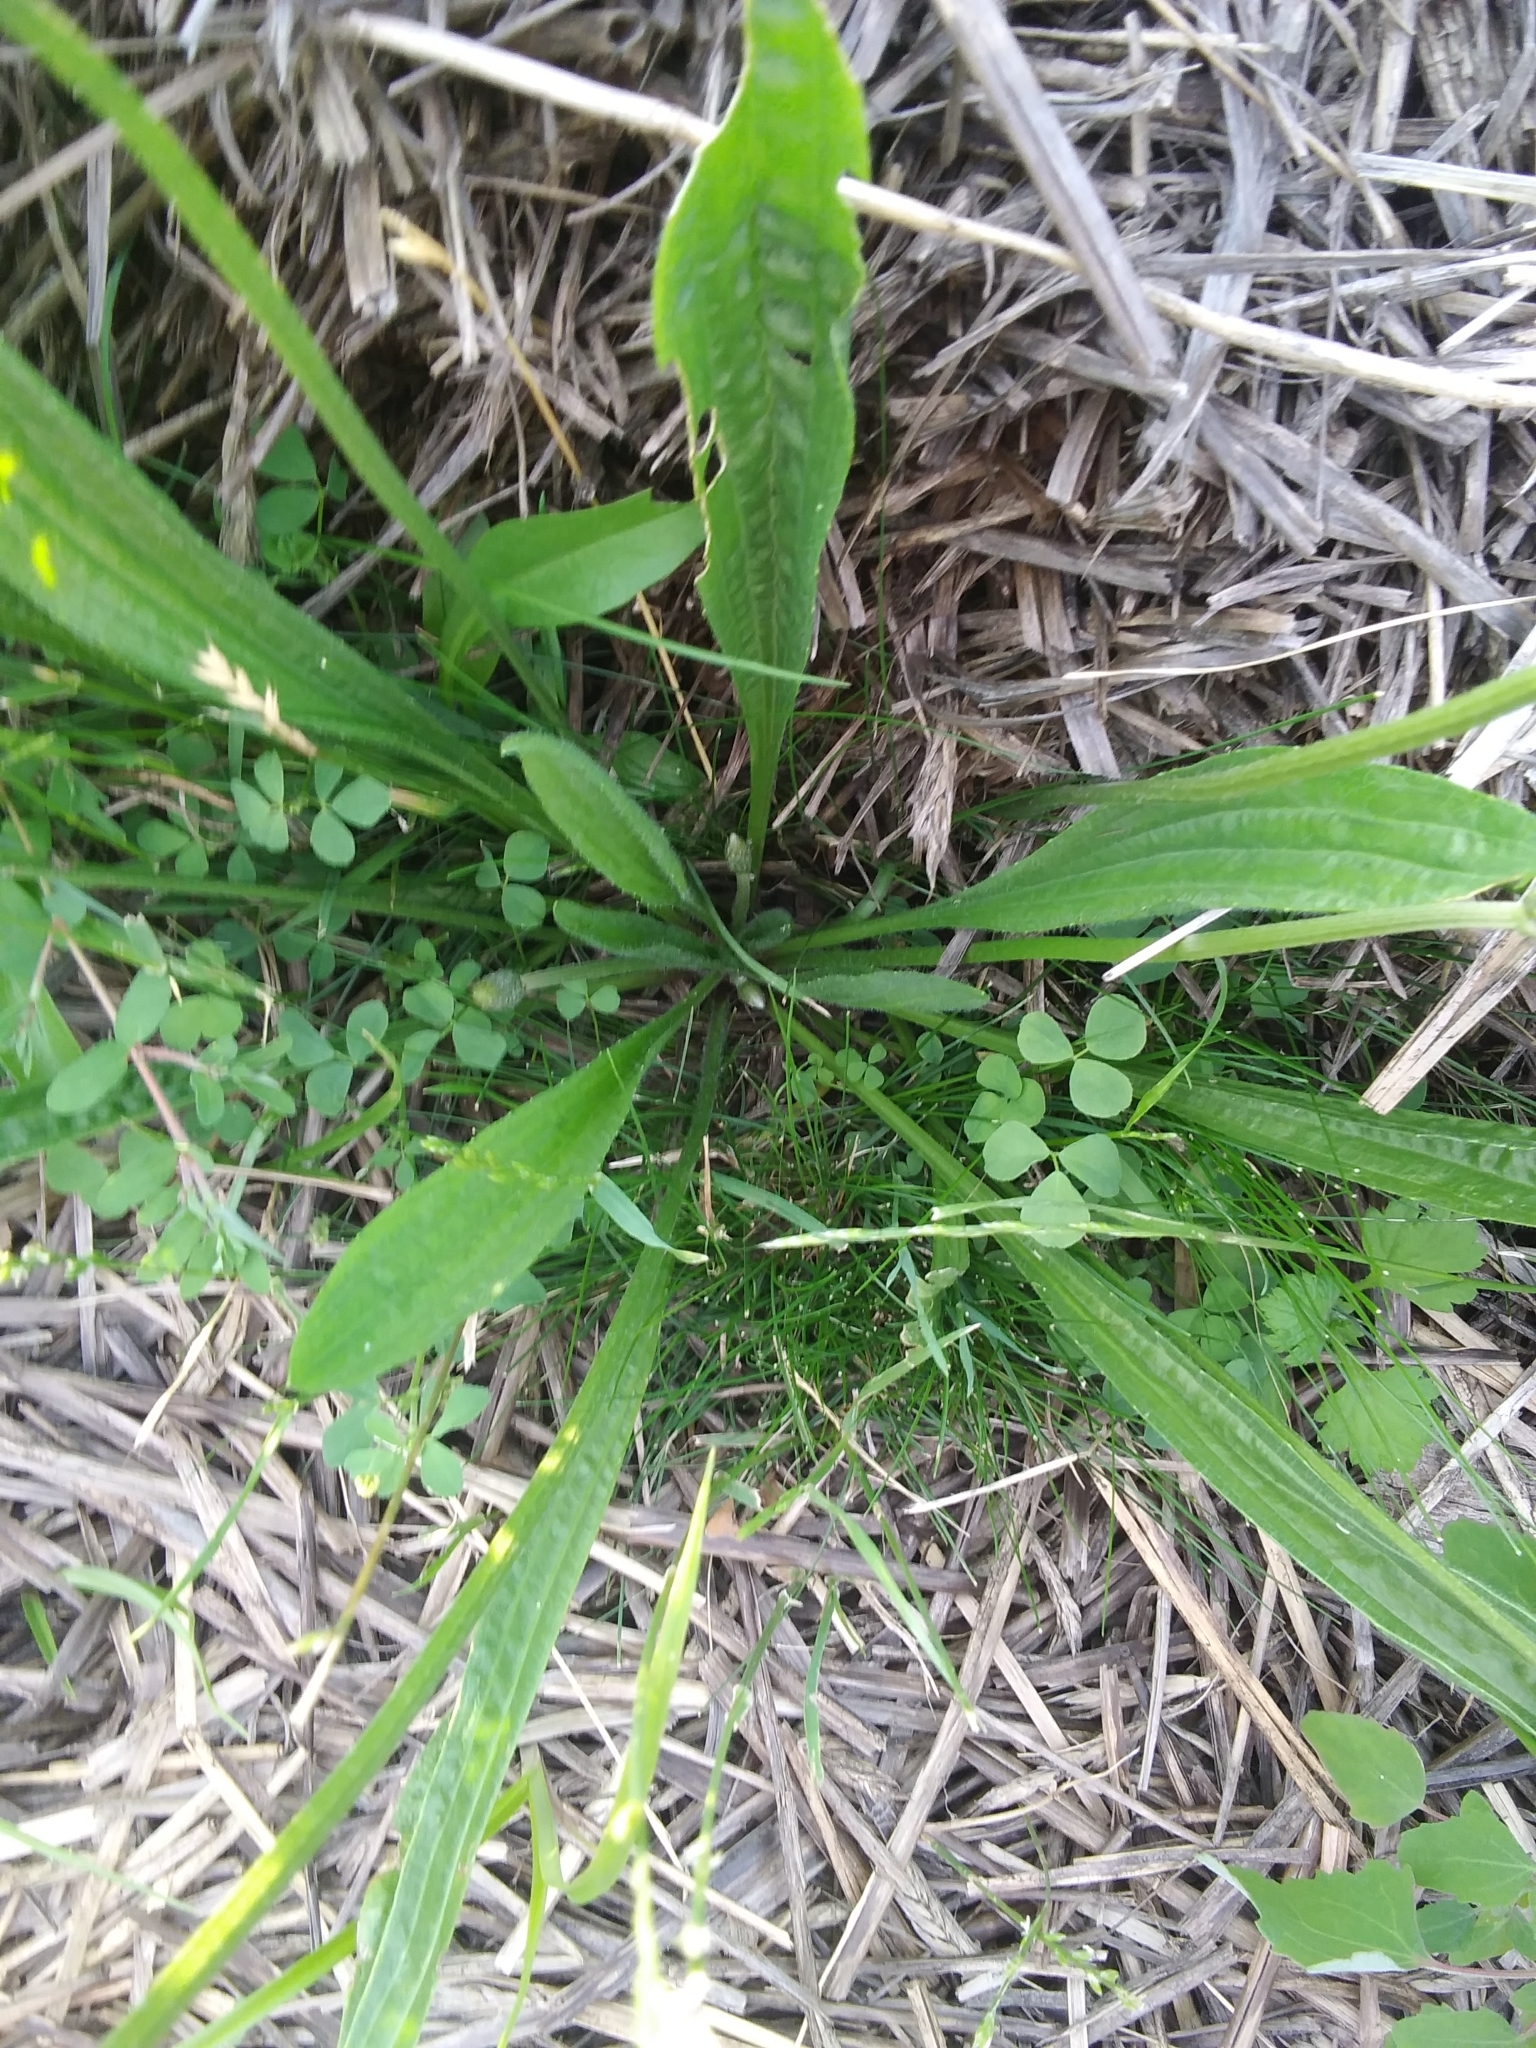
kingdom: Plantae
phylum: Tracheophyta
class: Magnoliopsida
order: Lamiales
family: Plantaginaceae
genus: Plantago
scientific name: Plantago lanceolata
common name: Ribwort plantain
